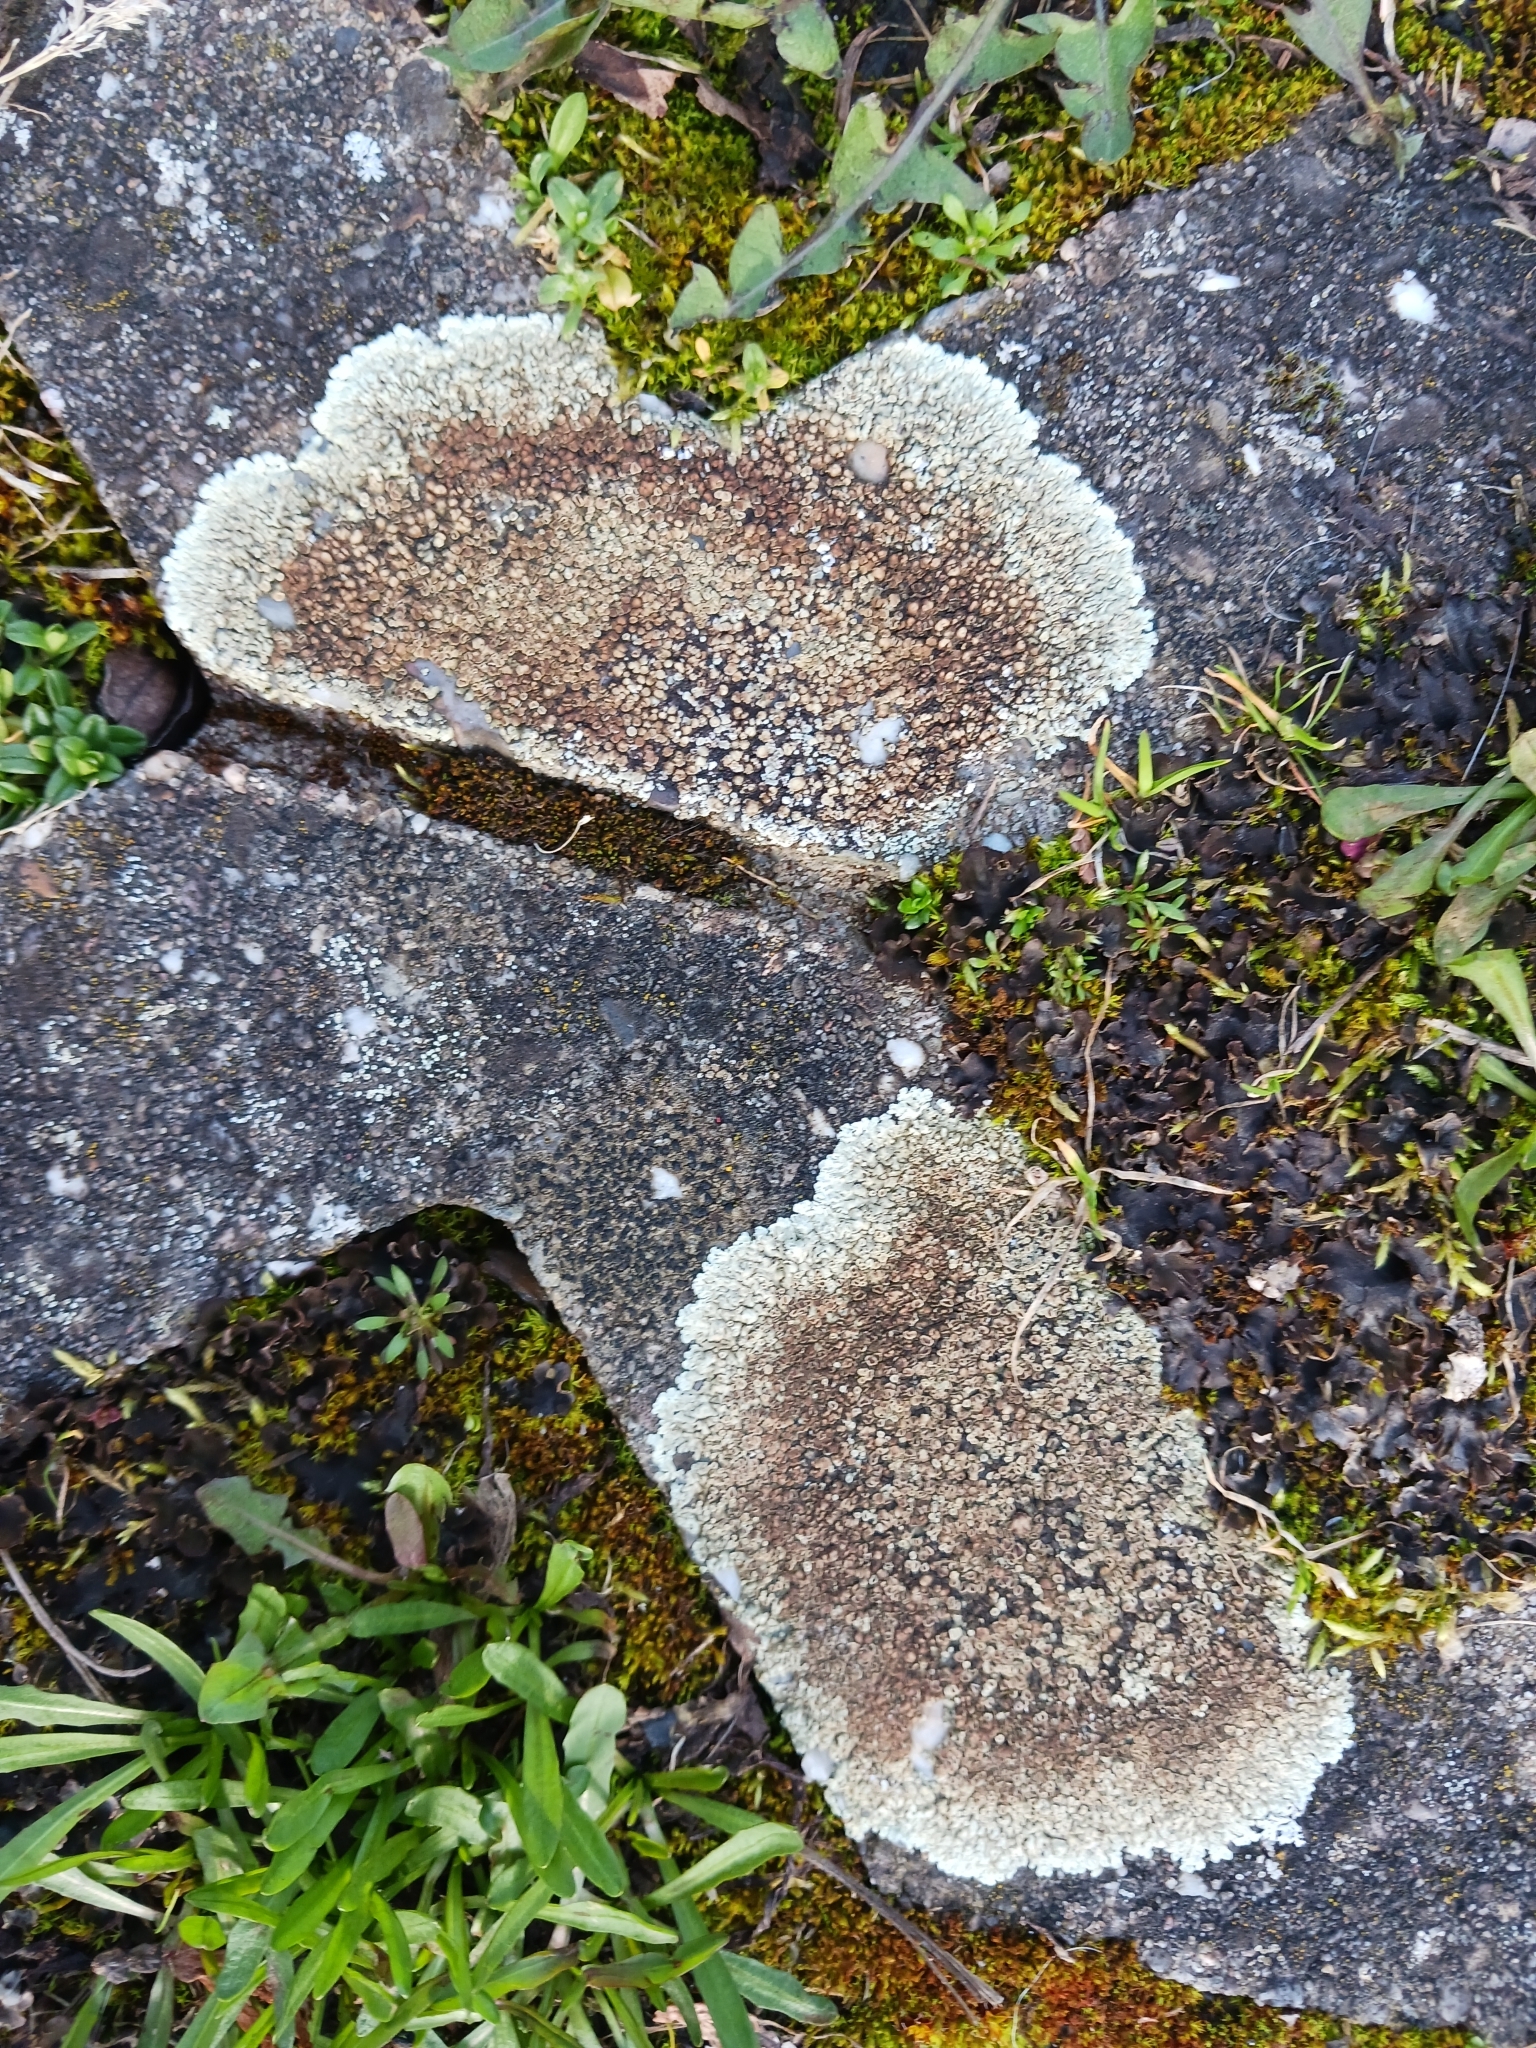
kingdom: Fungi
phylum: Ascomycota
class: Lecanoromycetes
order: Lecanorales
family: Lecanoraceae
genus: Protoparmeliopsis
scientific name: Protoparmeliopsis muralis
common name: Stonewall rim lichen
